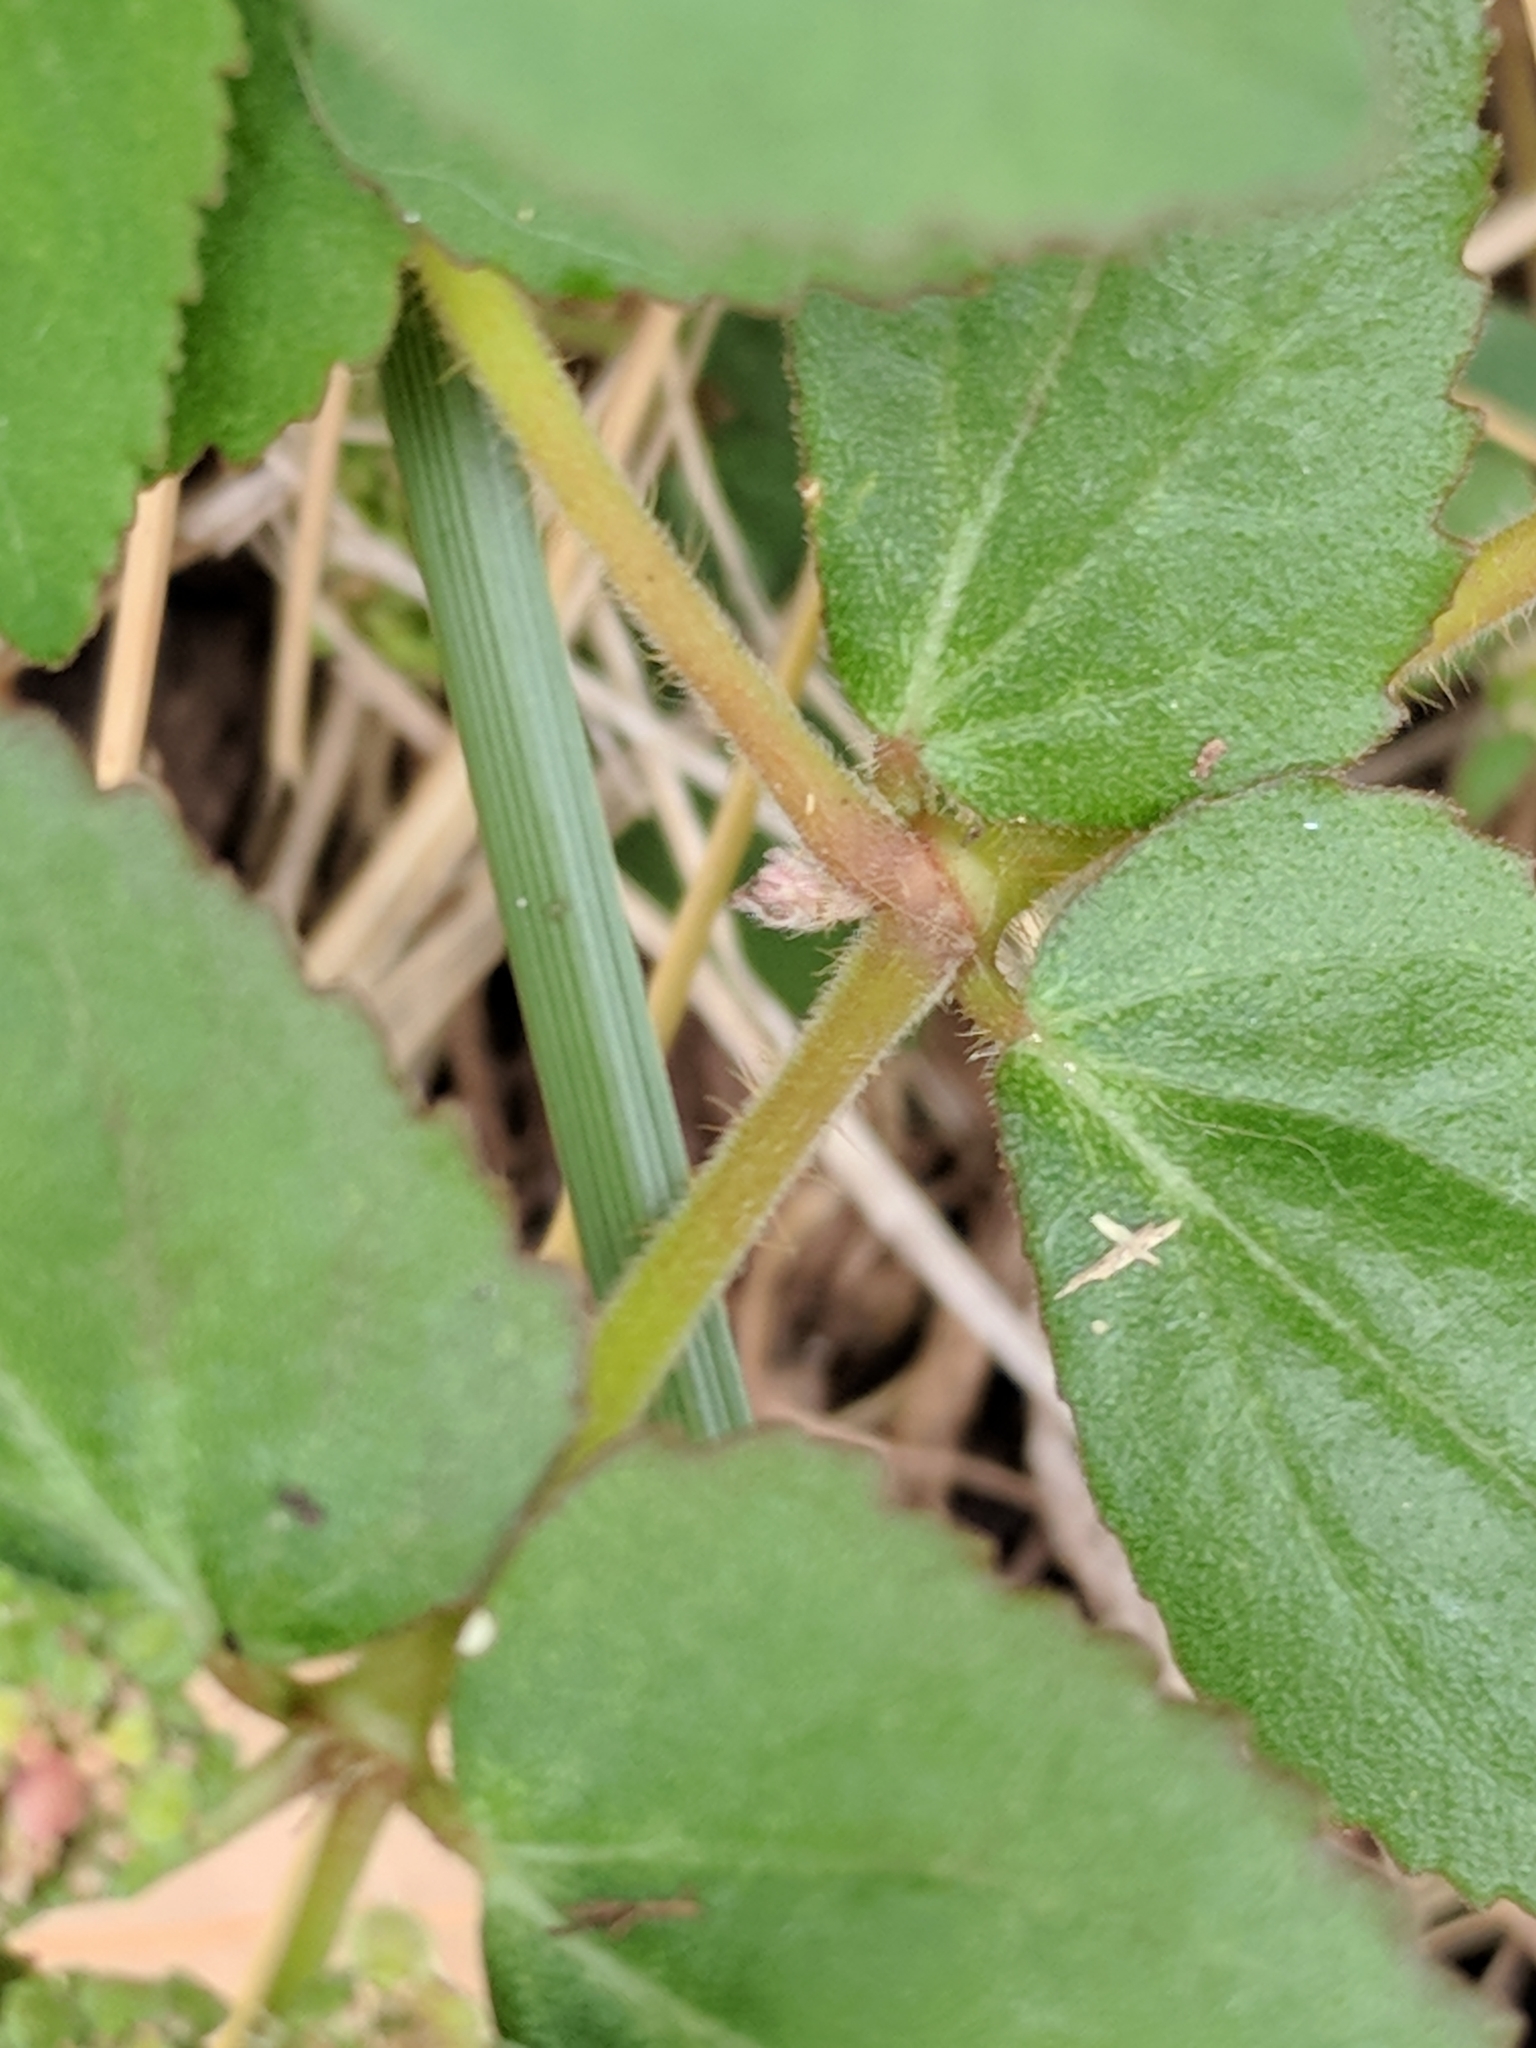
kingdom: Plantae
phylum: Tracheophyta
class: Magnoliopsida
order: Malpighiales
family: Euphorbiaceae
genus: Euphorbia
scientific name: Euphorbia ophthalmica
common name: Florida hammock sandmat
